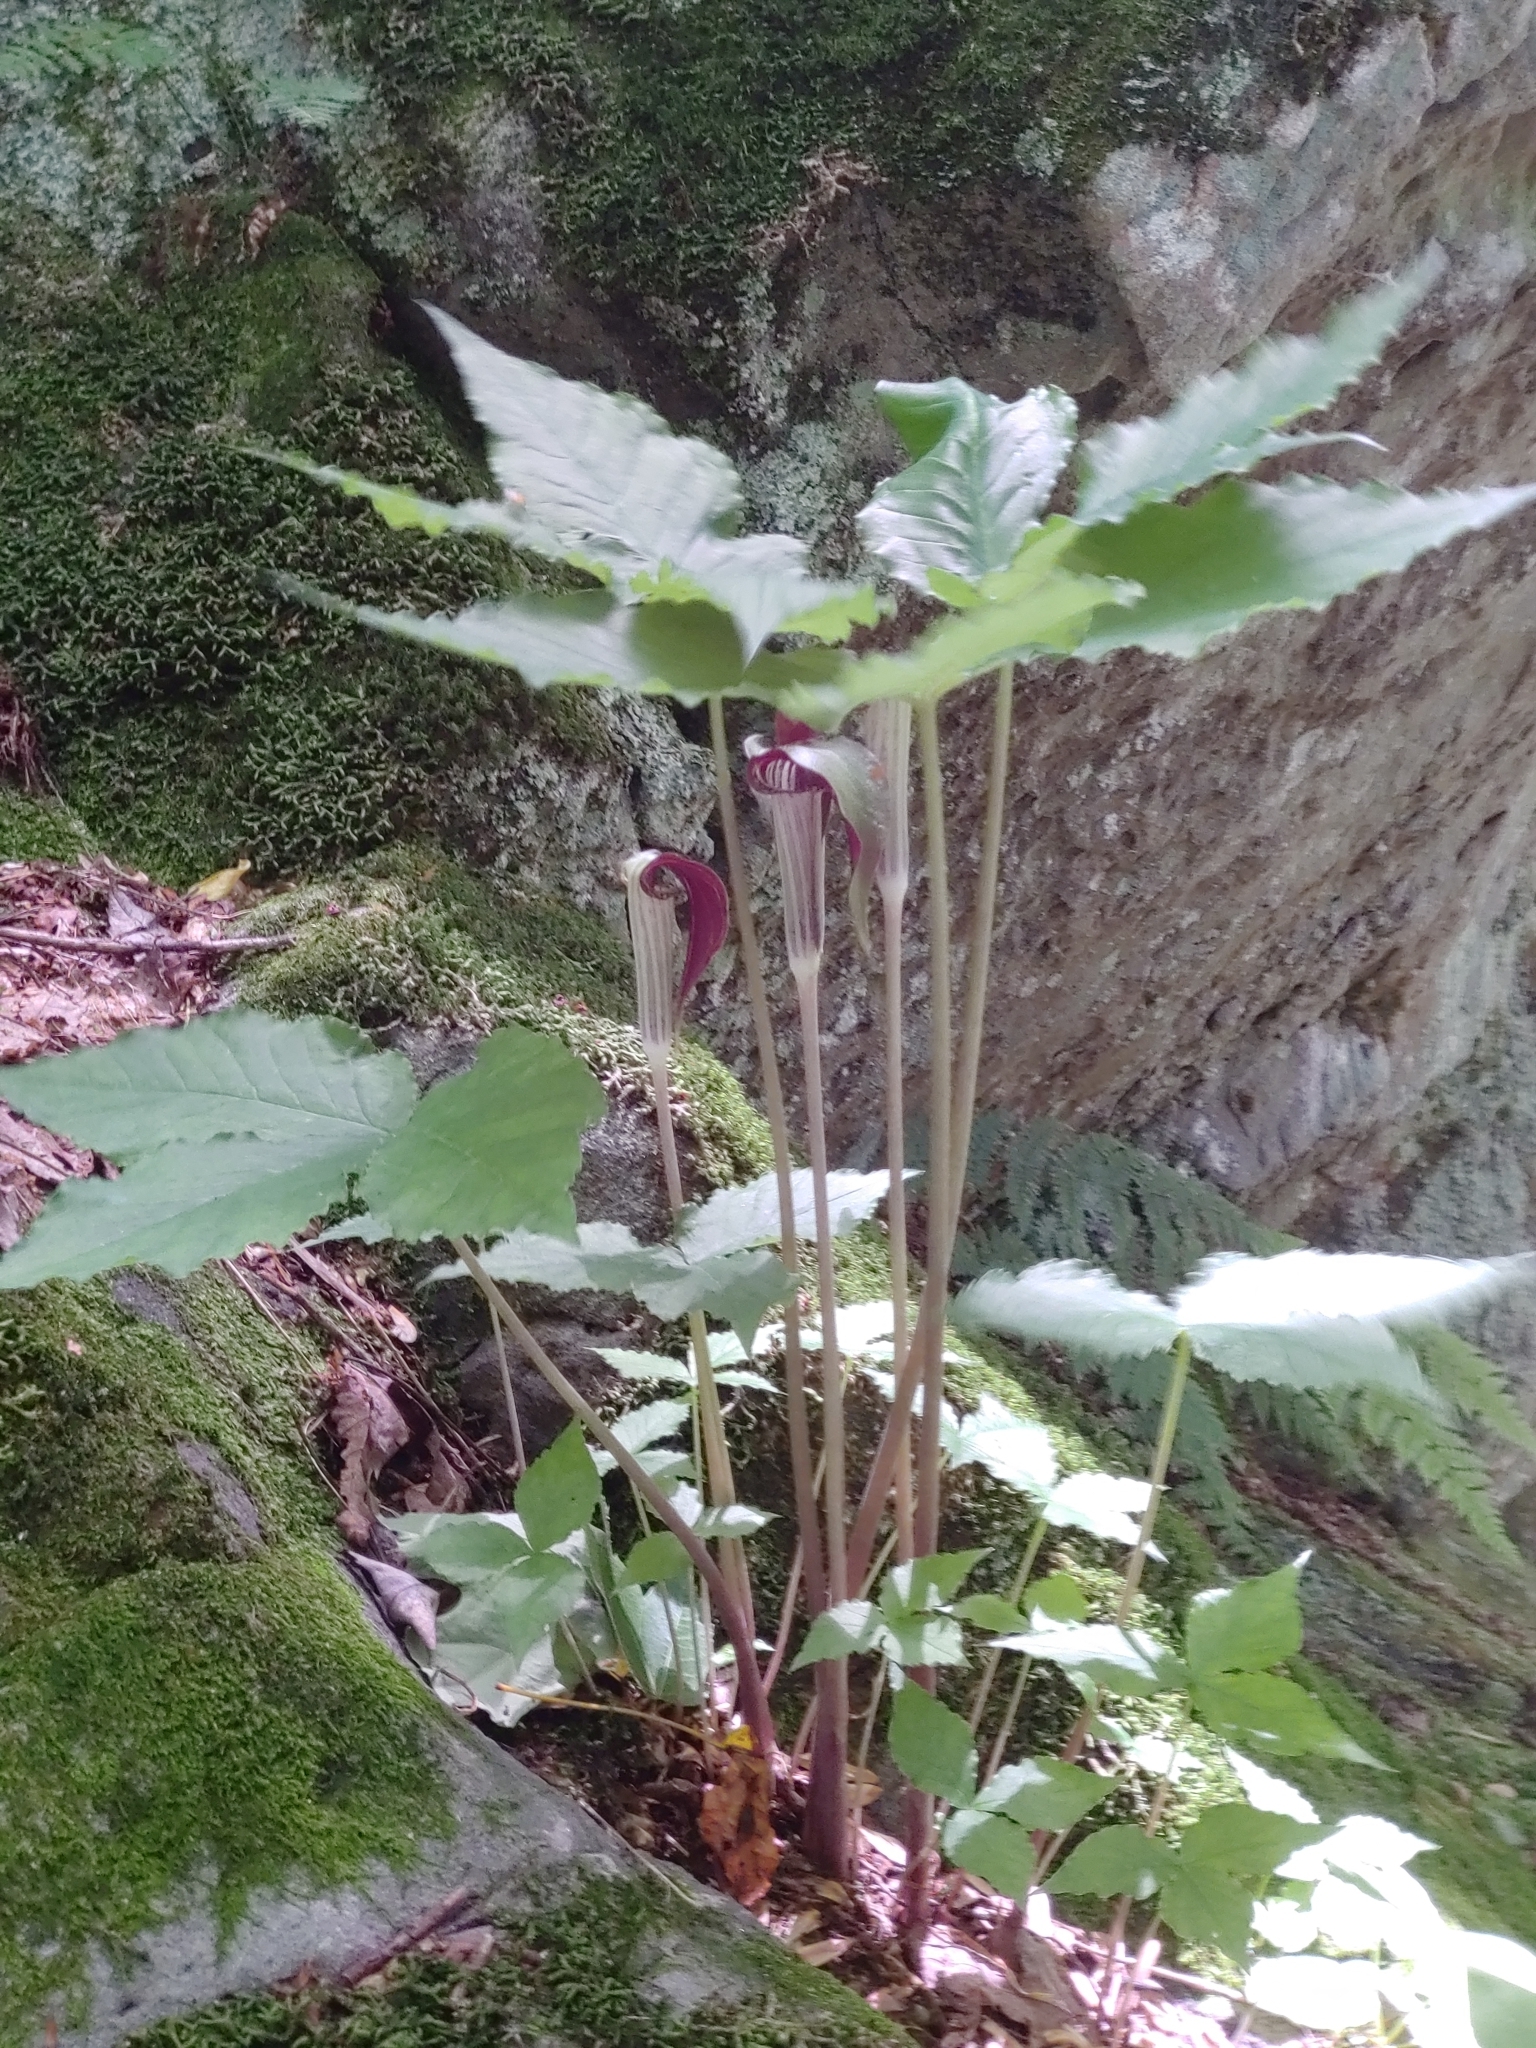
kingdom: Plantae
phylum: Tracheophyta
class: Liliopsida
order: Alismatales
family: Araceae
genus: Arisaema
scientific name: Arisaema triphyllum
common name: Jack-in-the-pulpit
